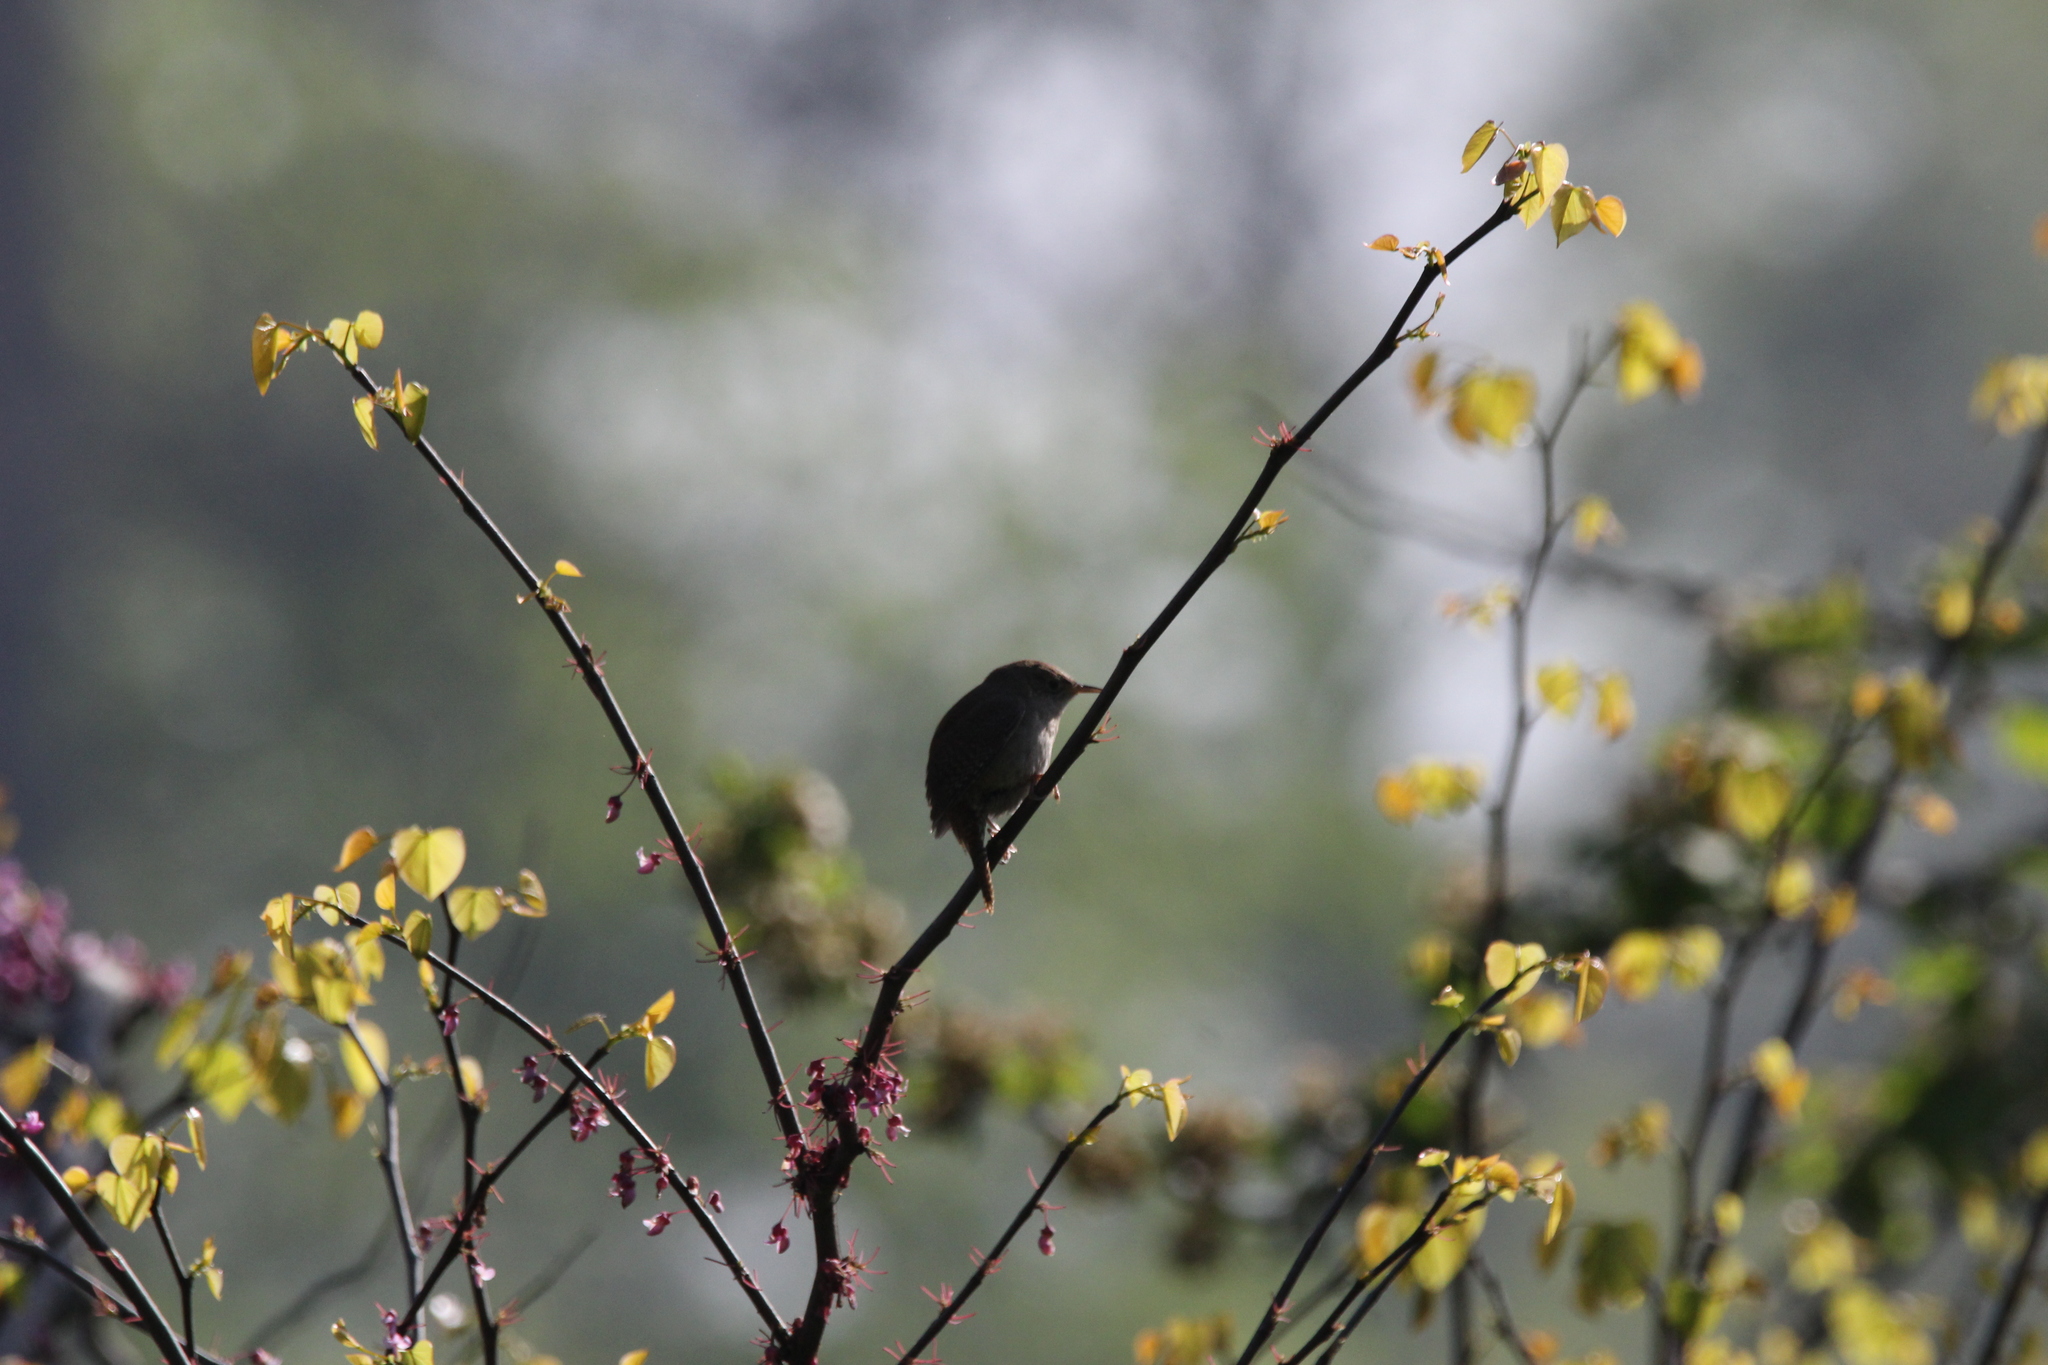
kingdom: Animalia
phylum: Chordata
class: Aves
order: Passeriformes
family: Troglodytidae
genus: Troglodytes
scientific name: Troglodytes aedon
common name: House wren
